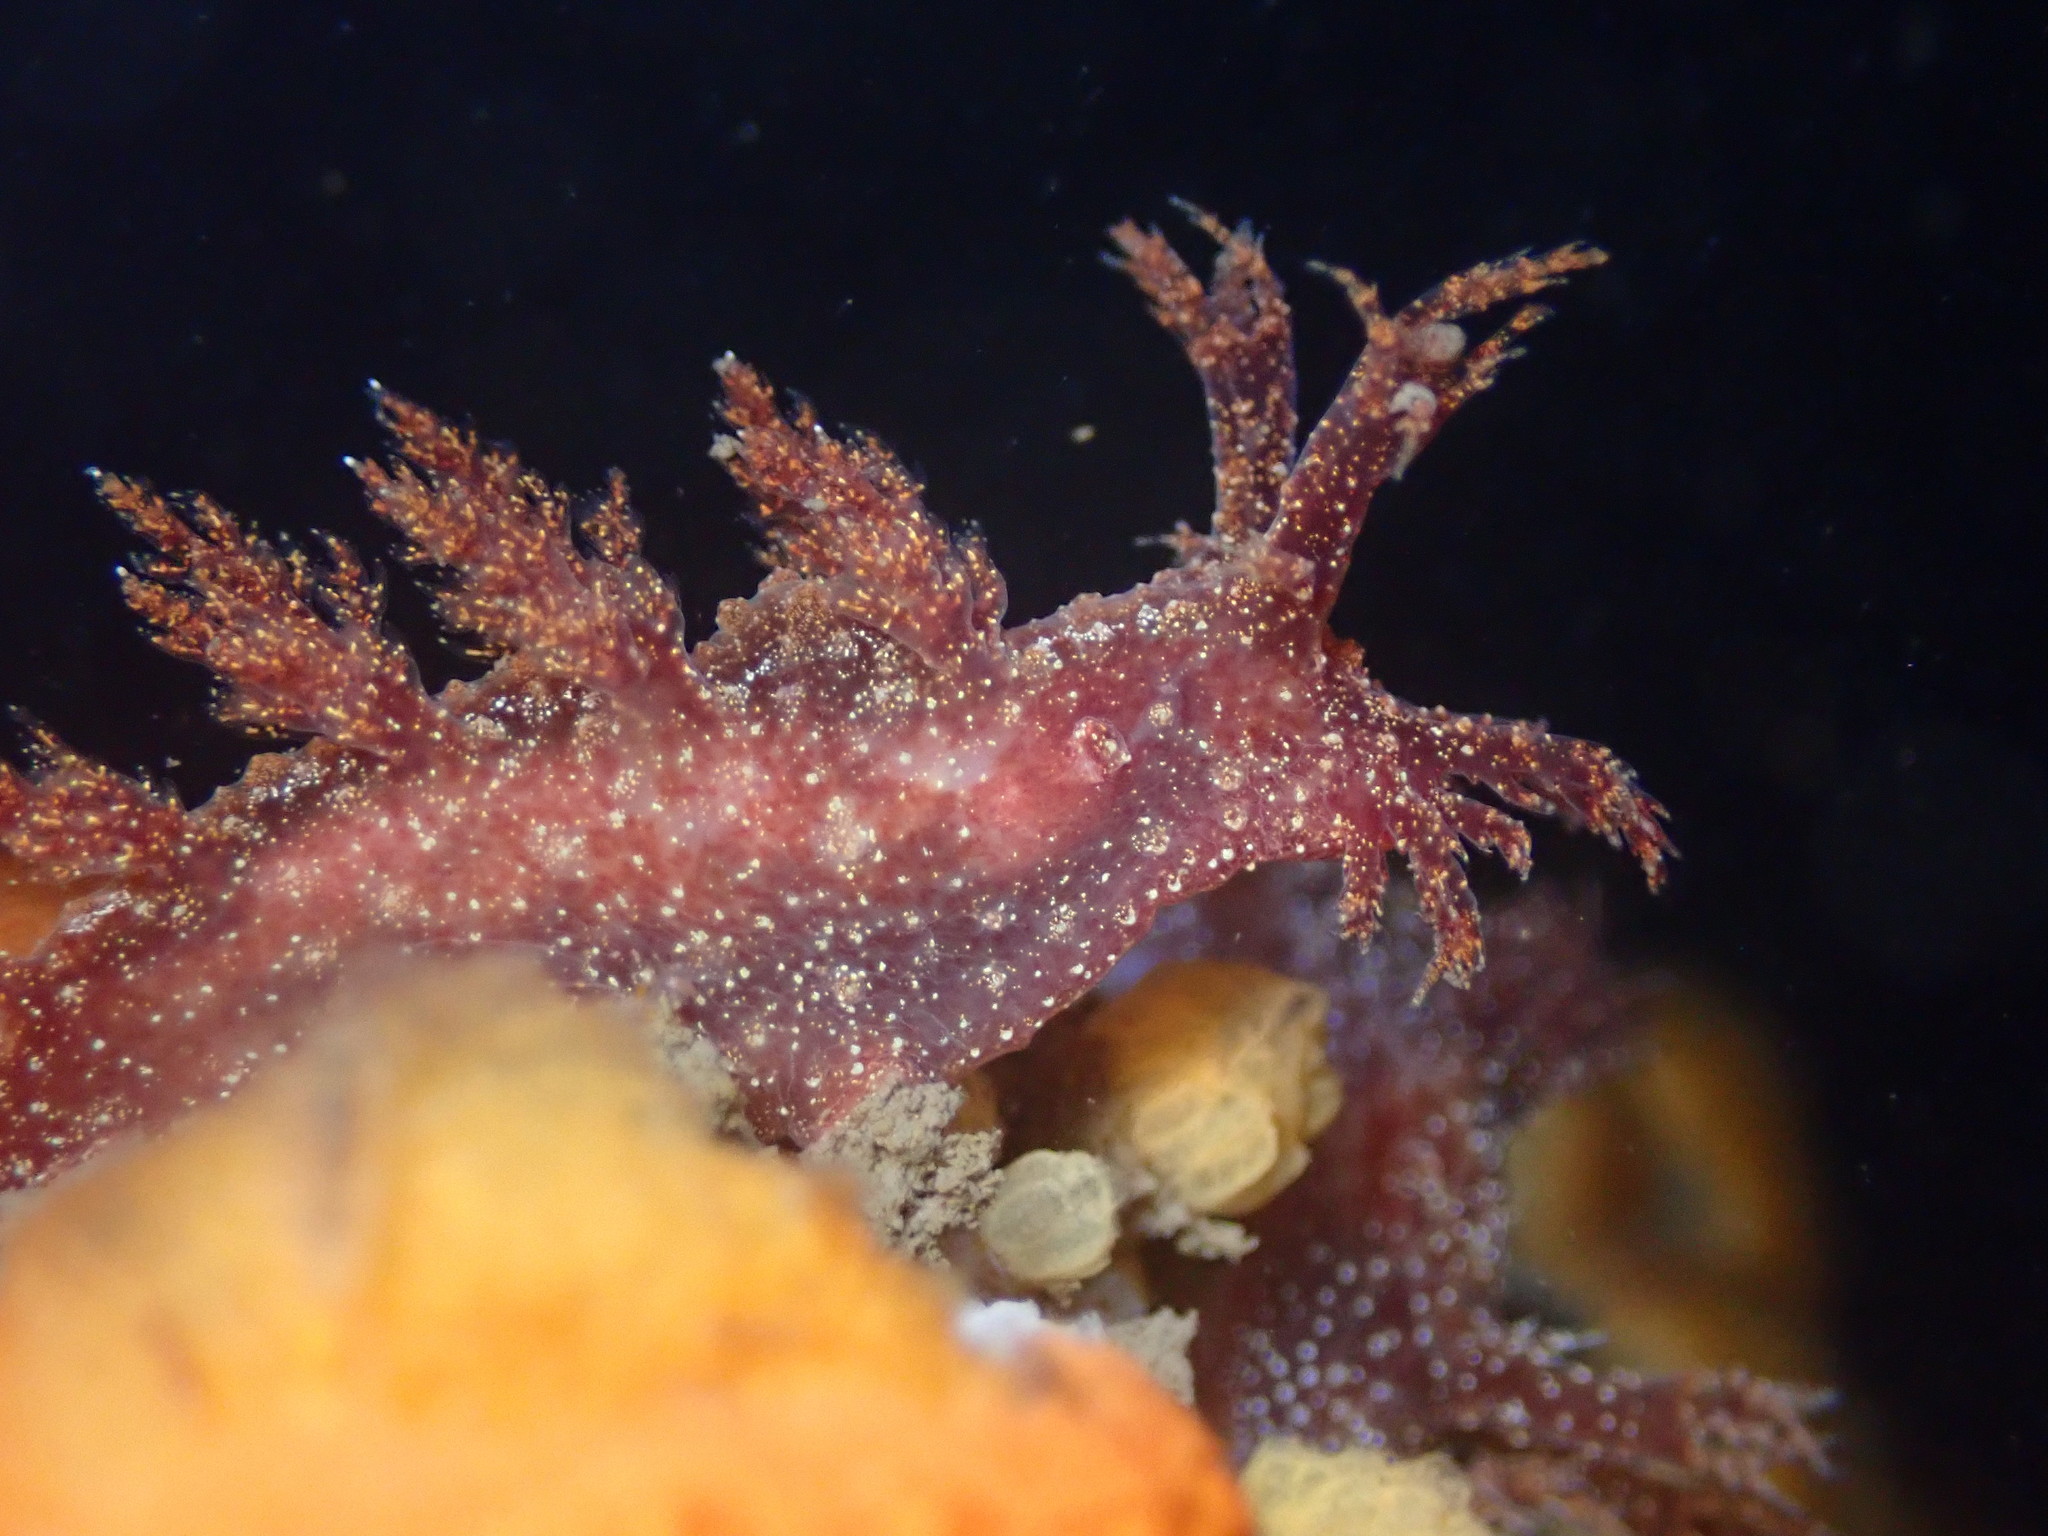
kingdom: Animalia
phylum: Mollusca
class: Gastropoda
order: Nudibranchia
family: Dendronotidae
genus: Dendronotus
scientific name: Dendronotus venustus
